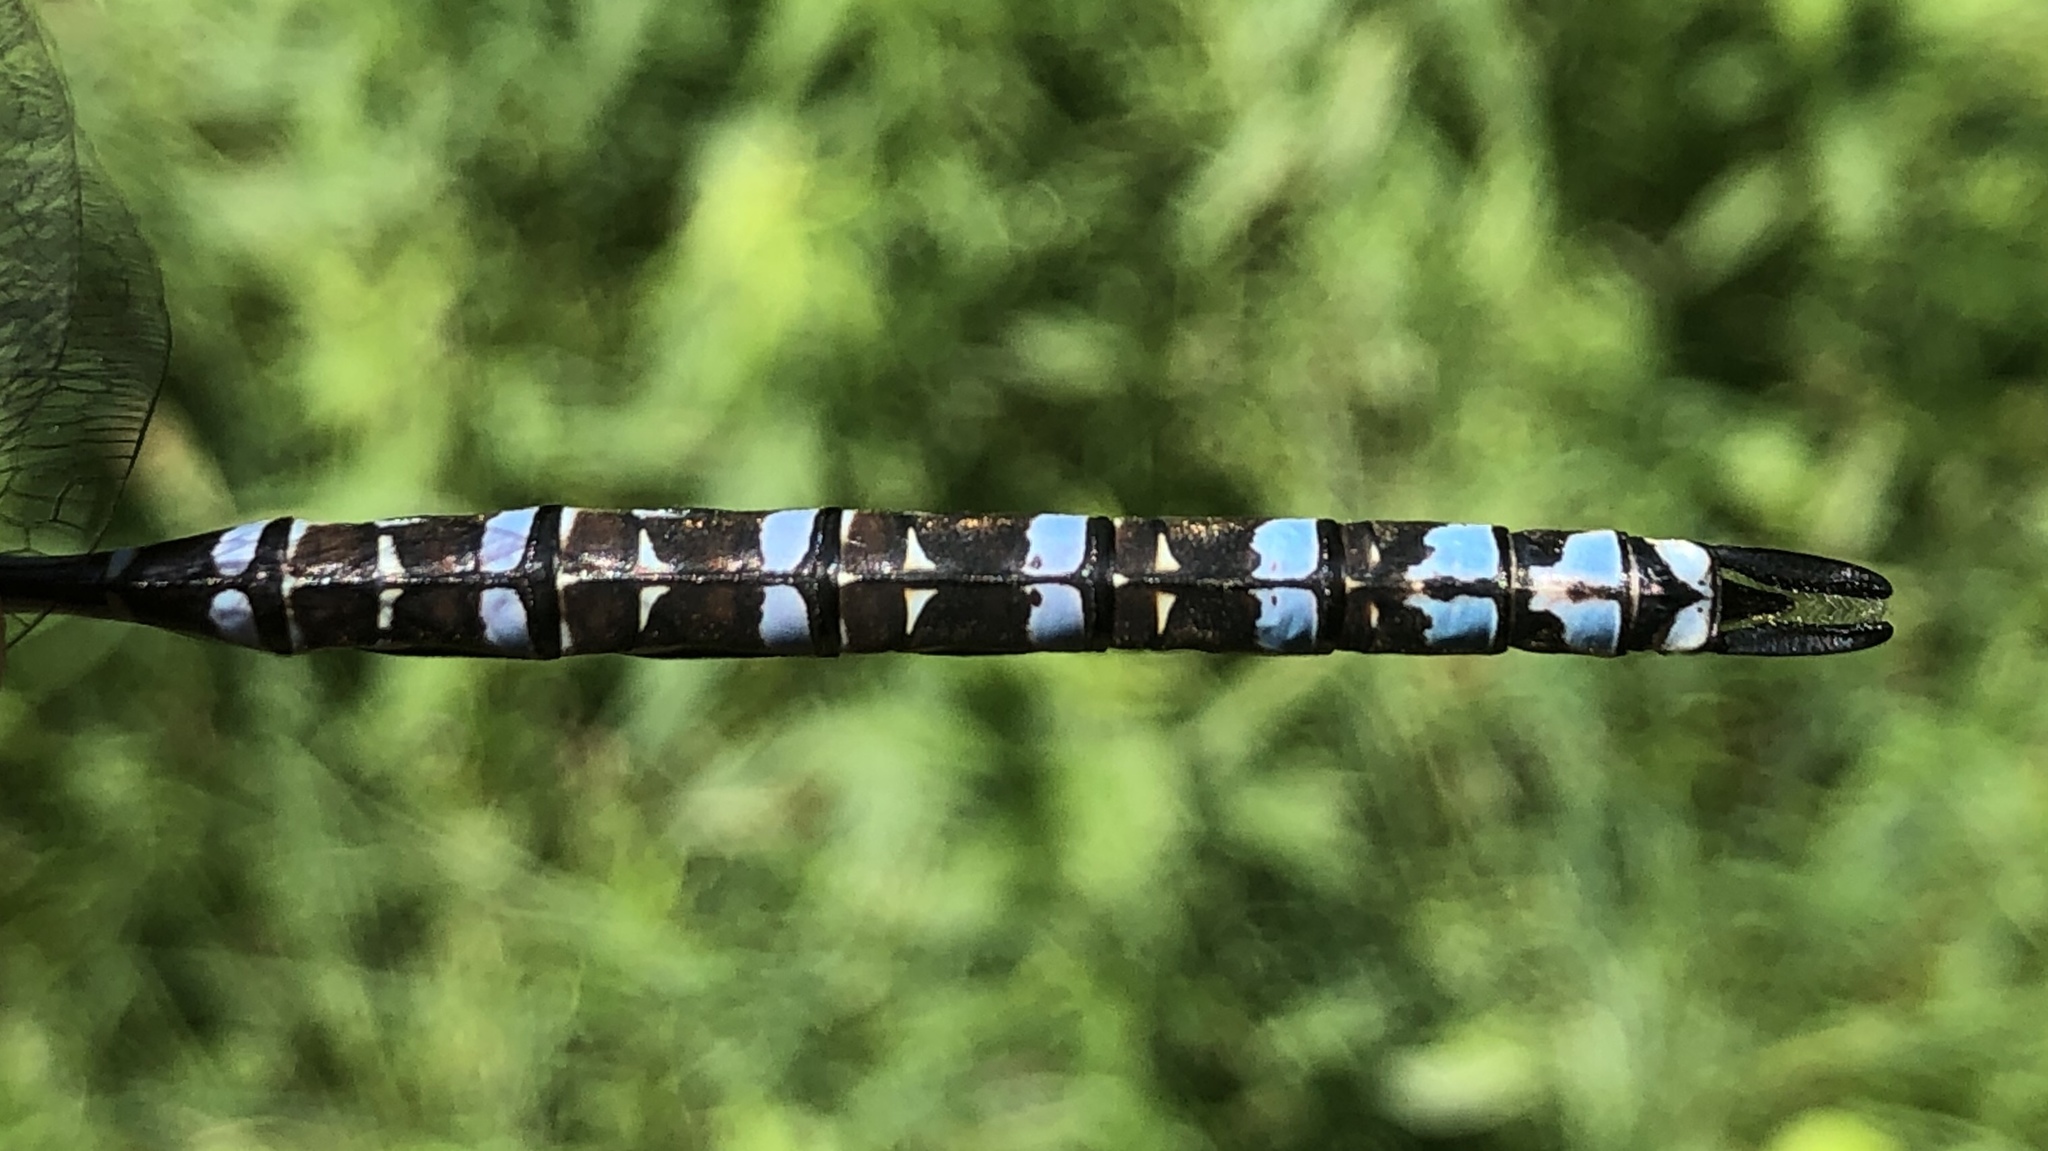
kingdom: Animalia
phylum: Arthropoda
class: Insecta
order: Odonata
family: Aeshnidae
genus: Aeshna
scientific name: Aeshna eremita
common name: Lake darner
